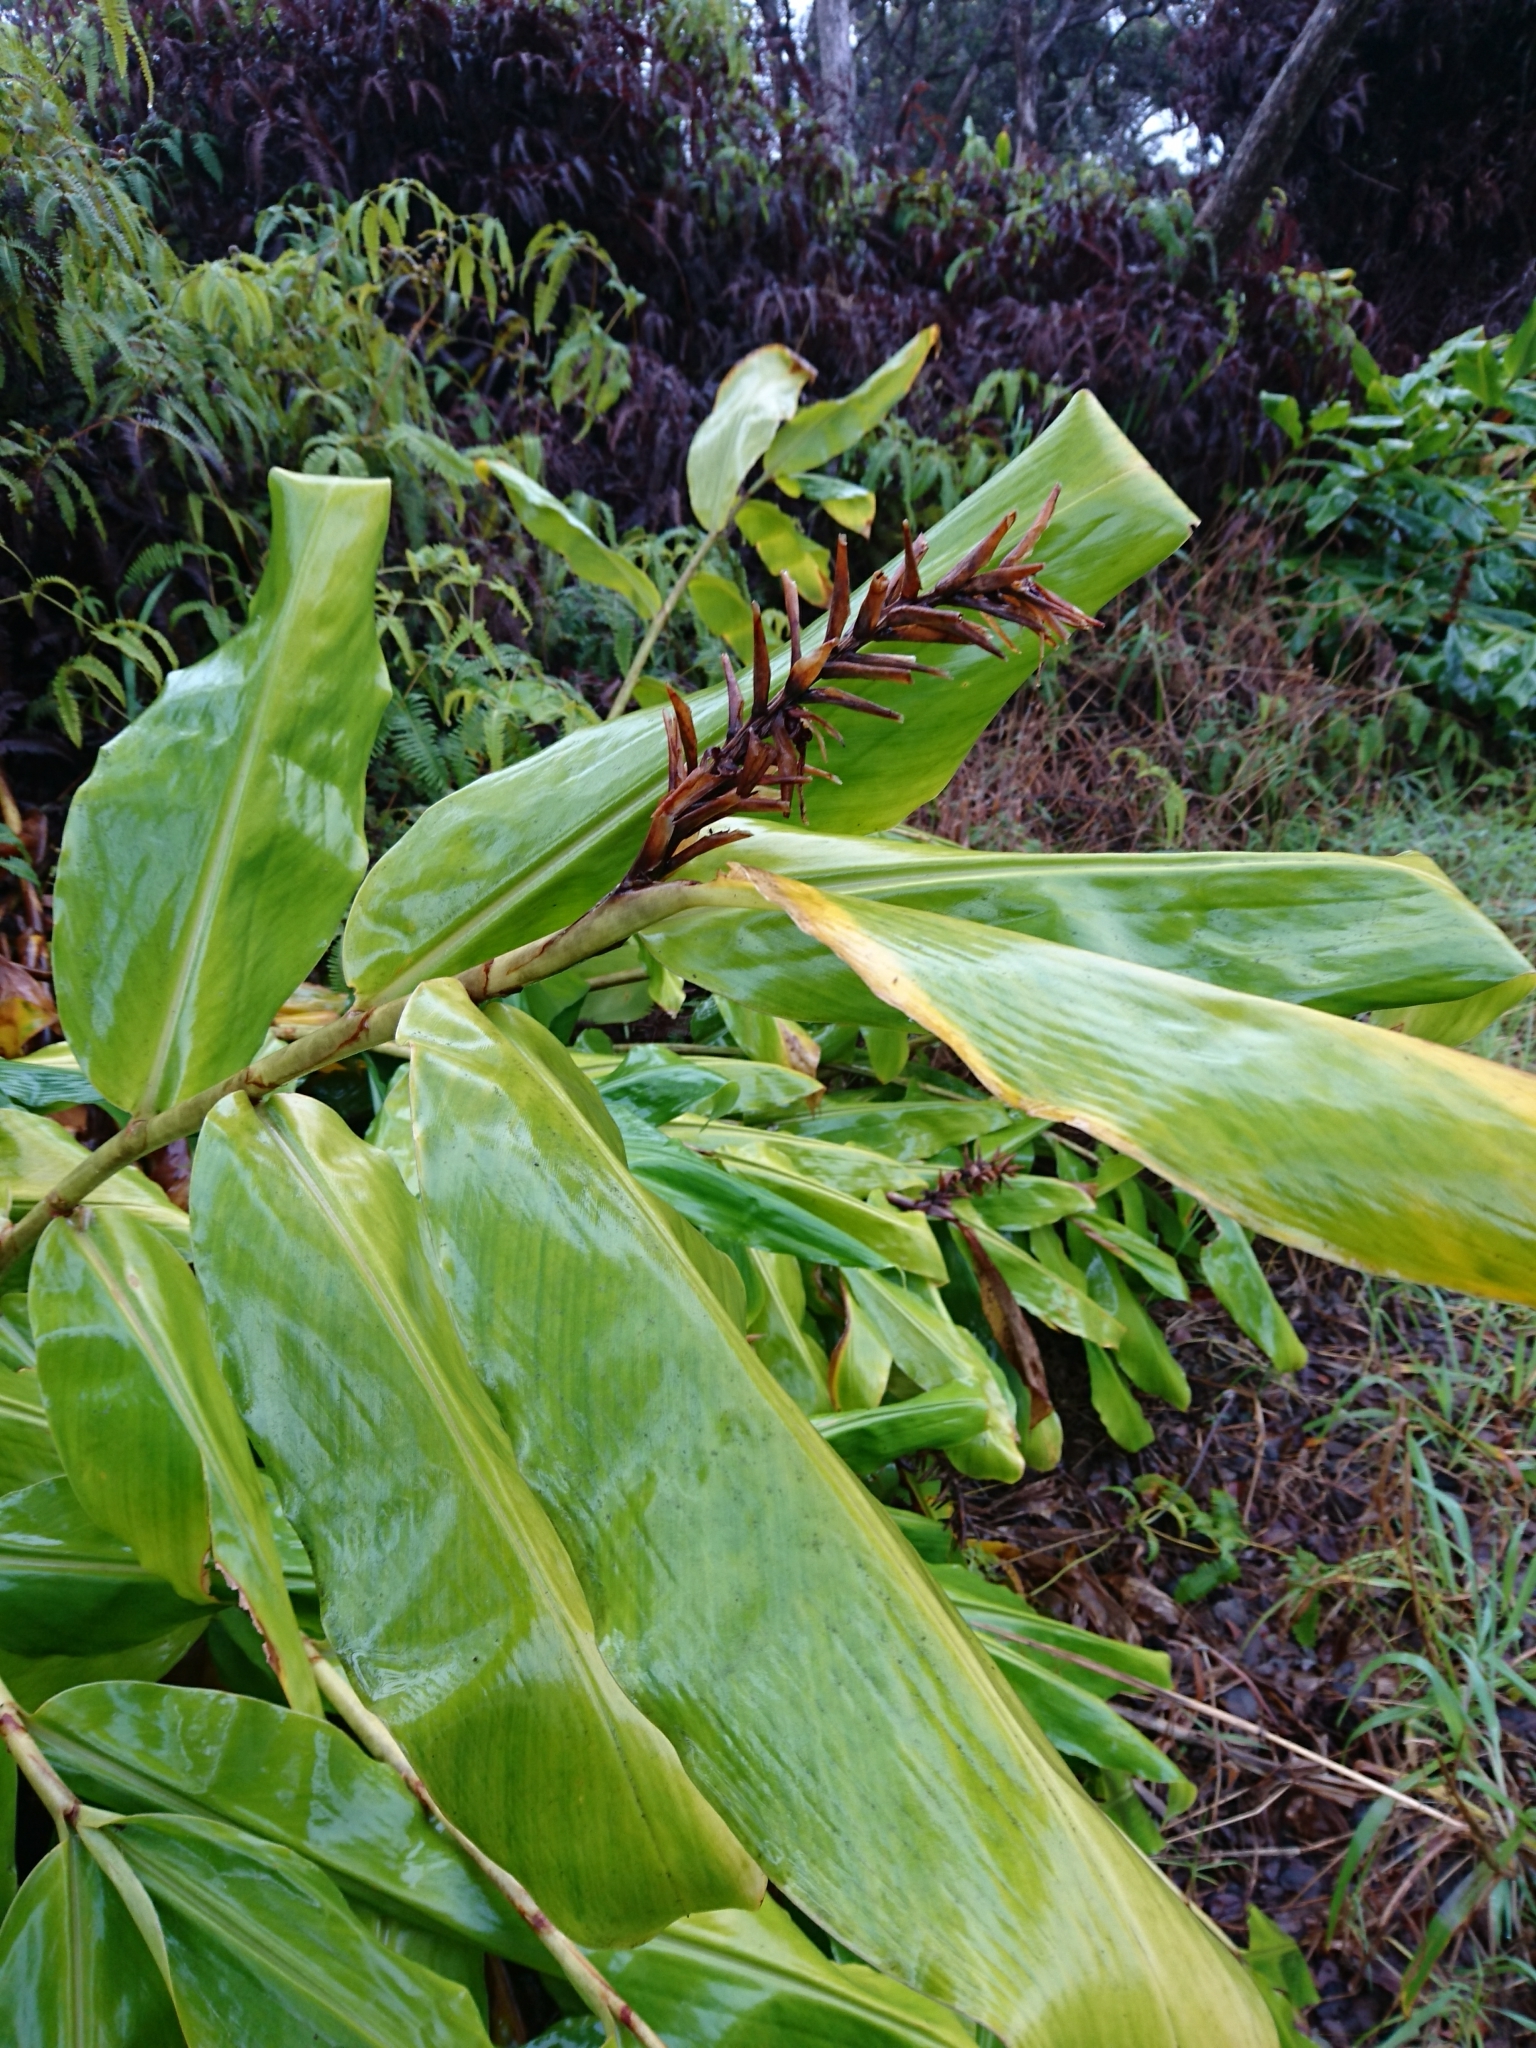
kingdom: Plantae
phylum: Tracheophyta
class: Liliopsida
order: Zingiberales
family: Zingiberaceae
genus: Hedychium
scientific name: Hedychium gardnerianum
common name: Himalayan ginger
